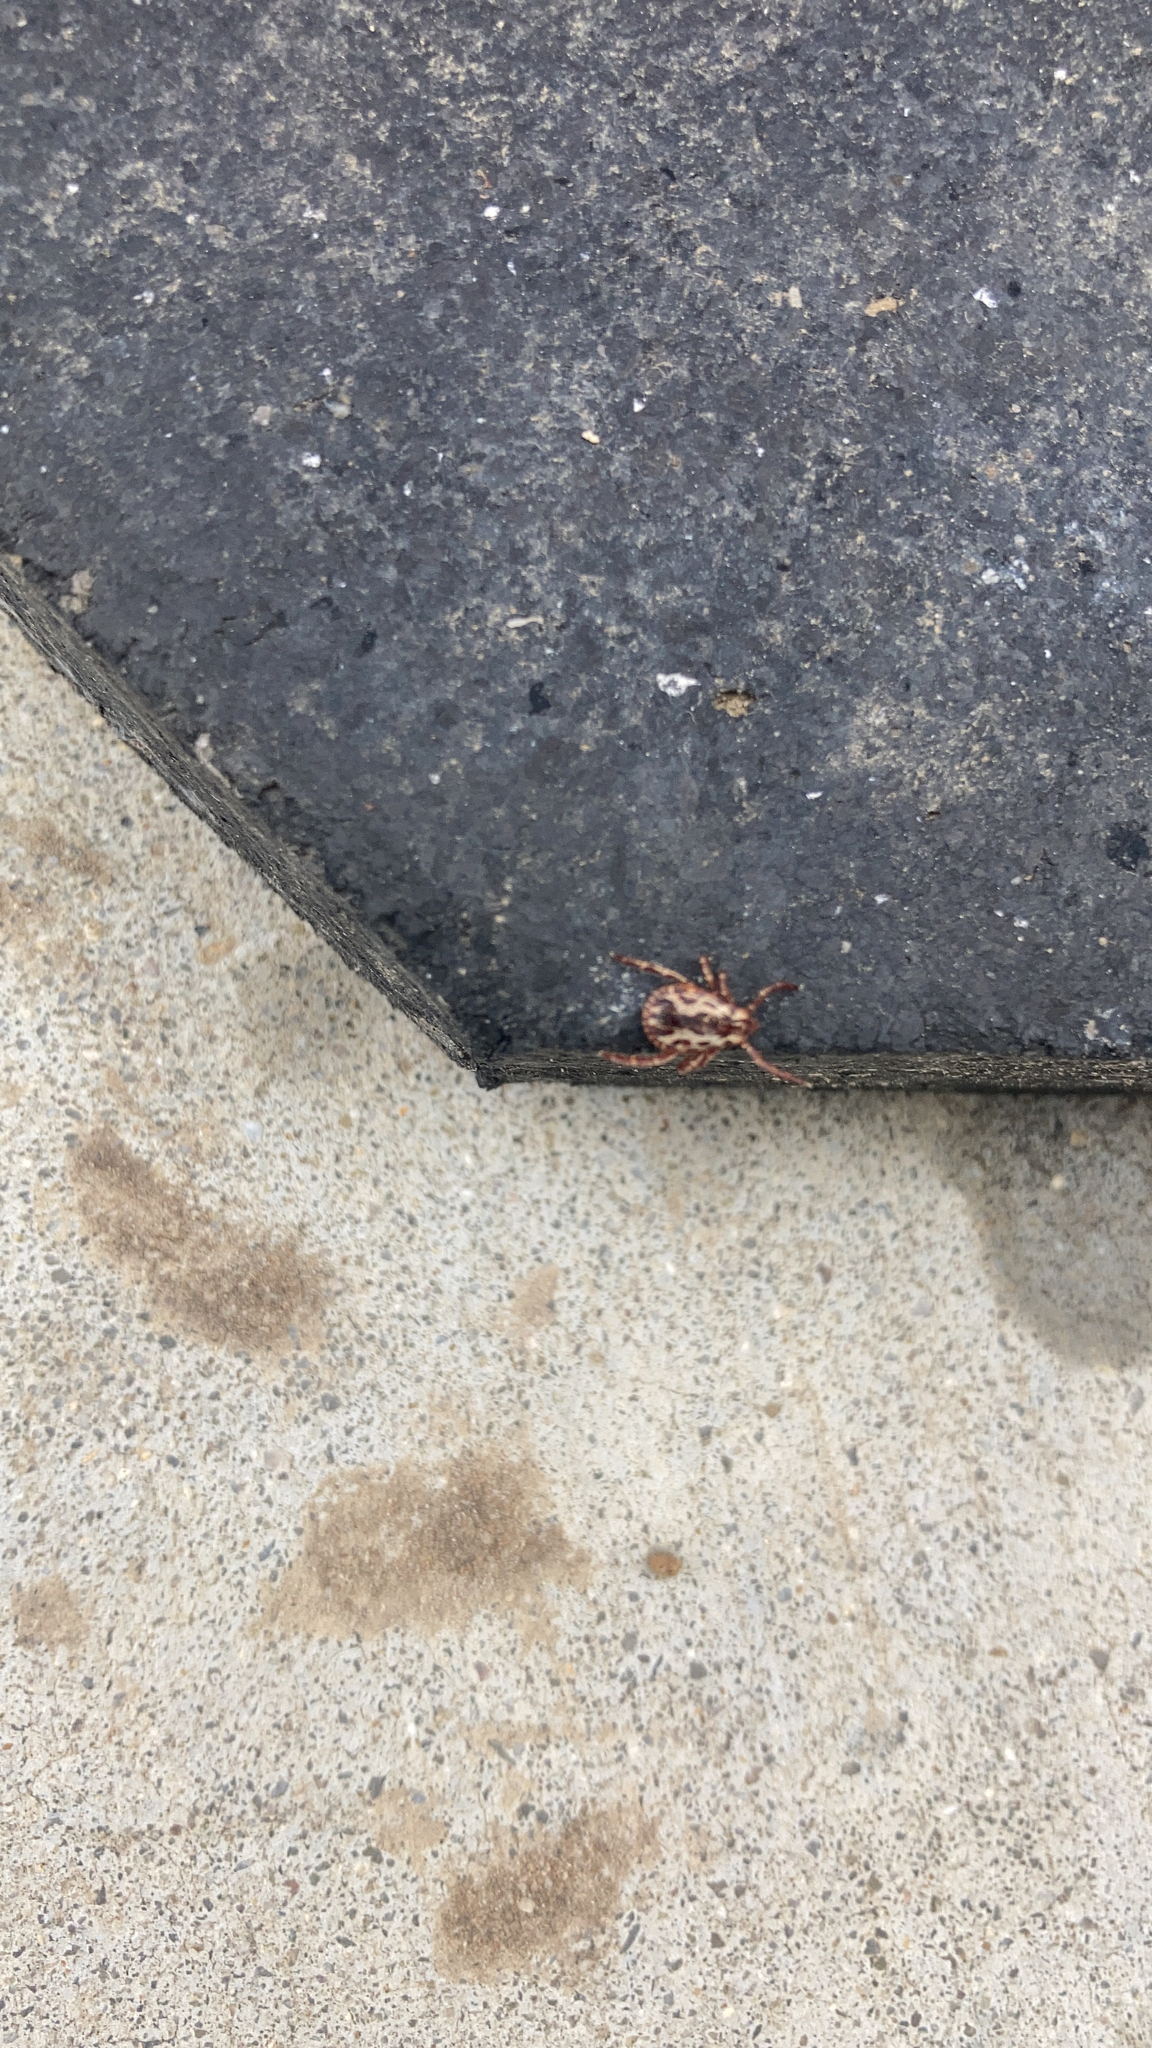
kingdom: Animalia
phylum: Arthropoda
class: Arachnida
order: Ixodida
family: Ixodidae
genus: Dermacentor
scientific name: Dermacentor variabilis
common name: American dog tick
